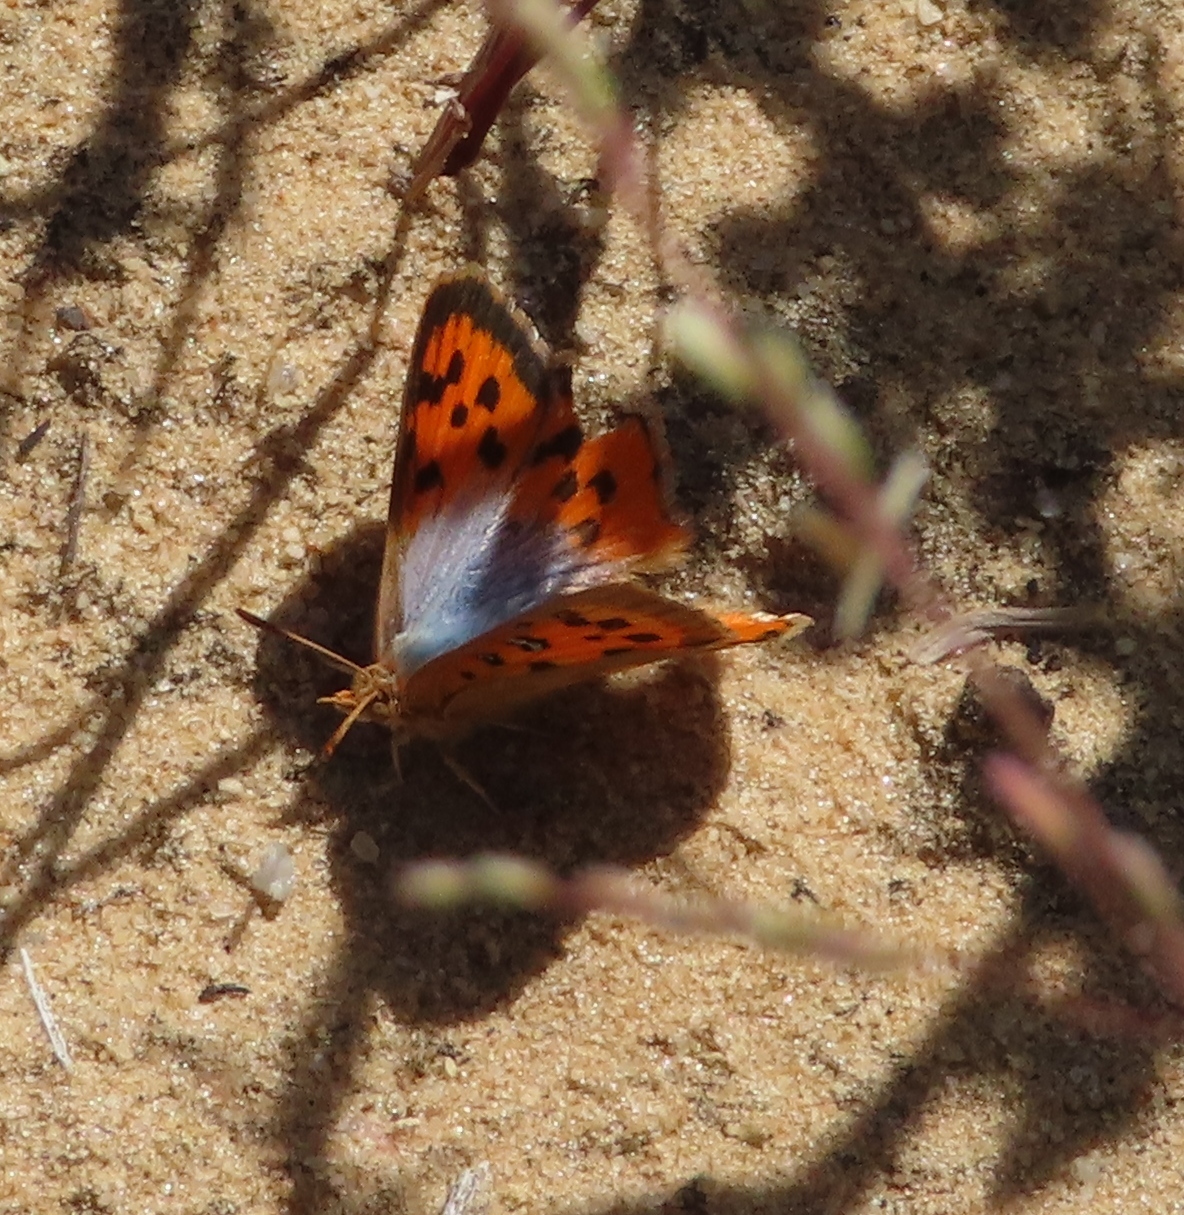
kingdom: Animalia
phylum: Arthropoda
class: Insecta
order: Lepidoptera
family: Lycaenidae
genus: Chrysoritis
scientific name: Chrysoritis pan
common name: Pan opal
